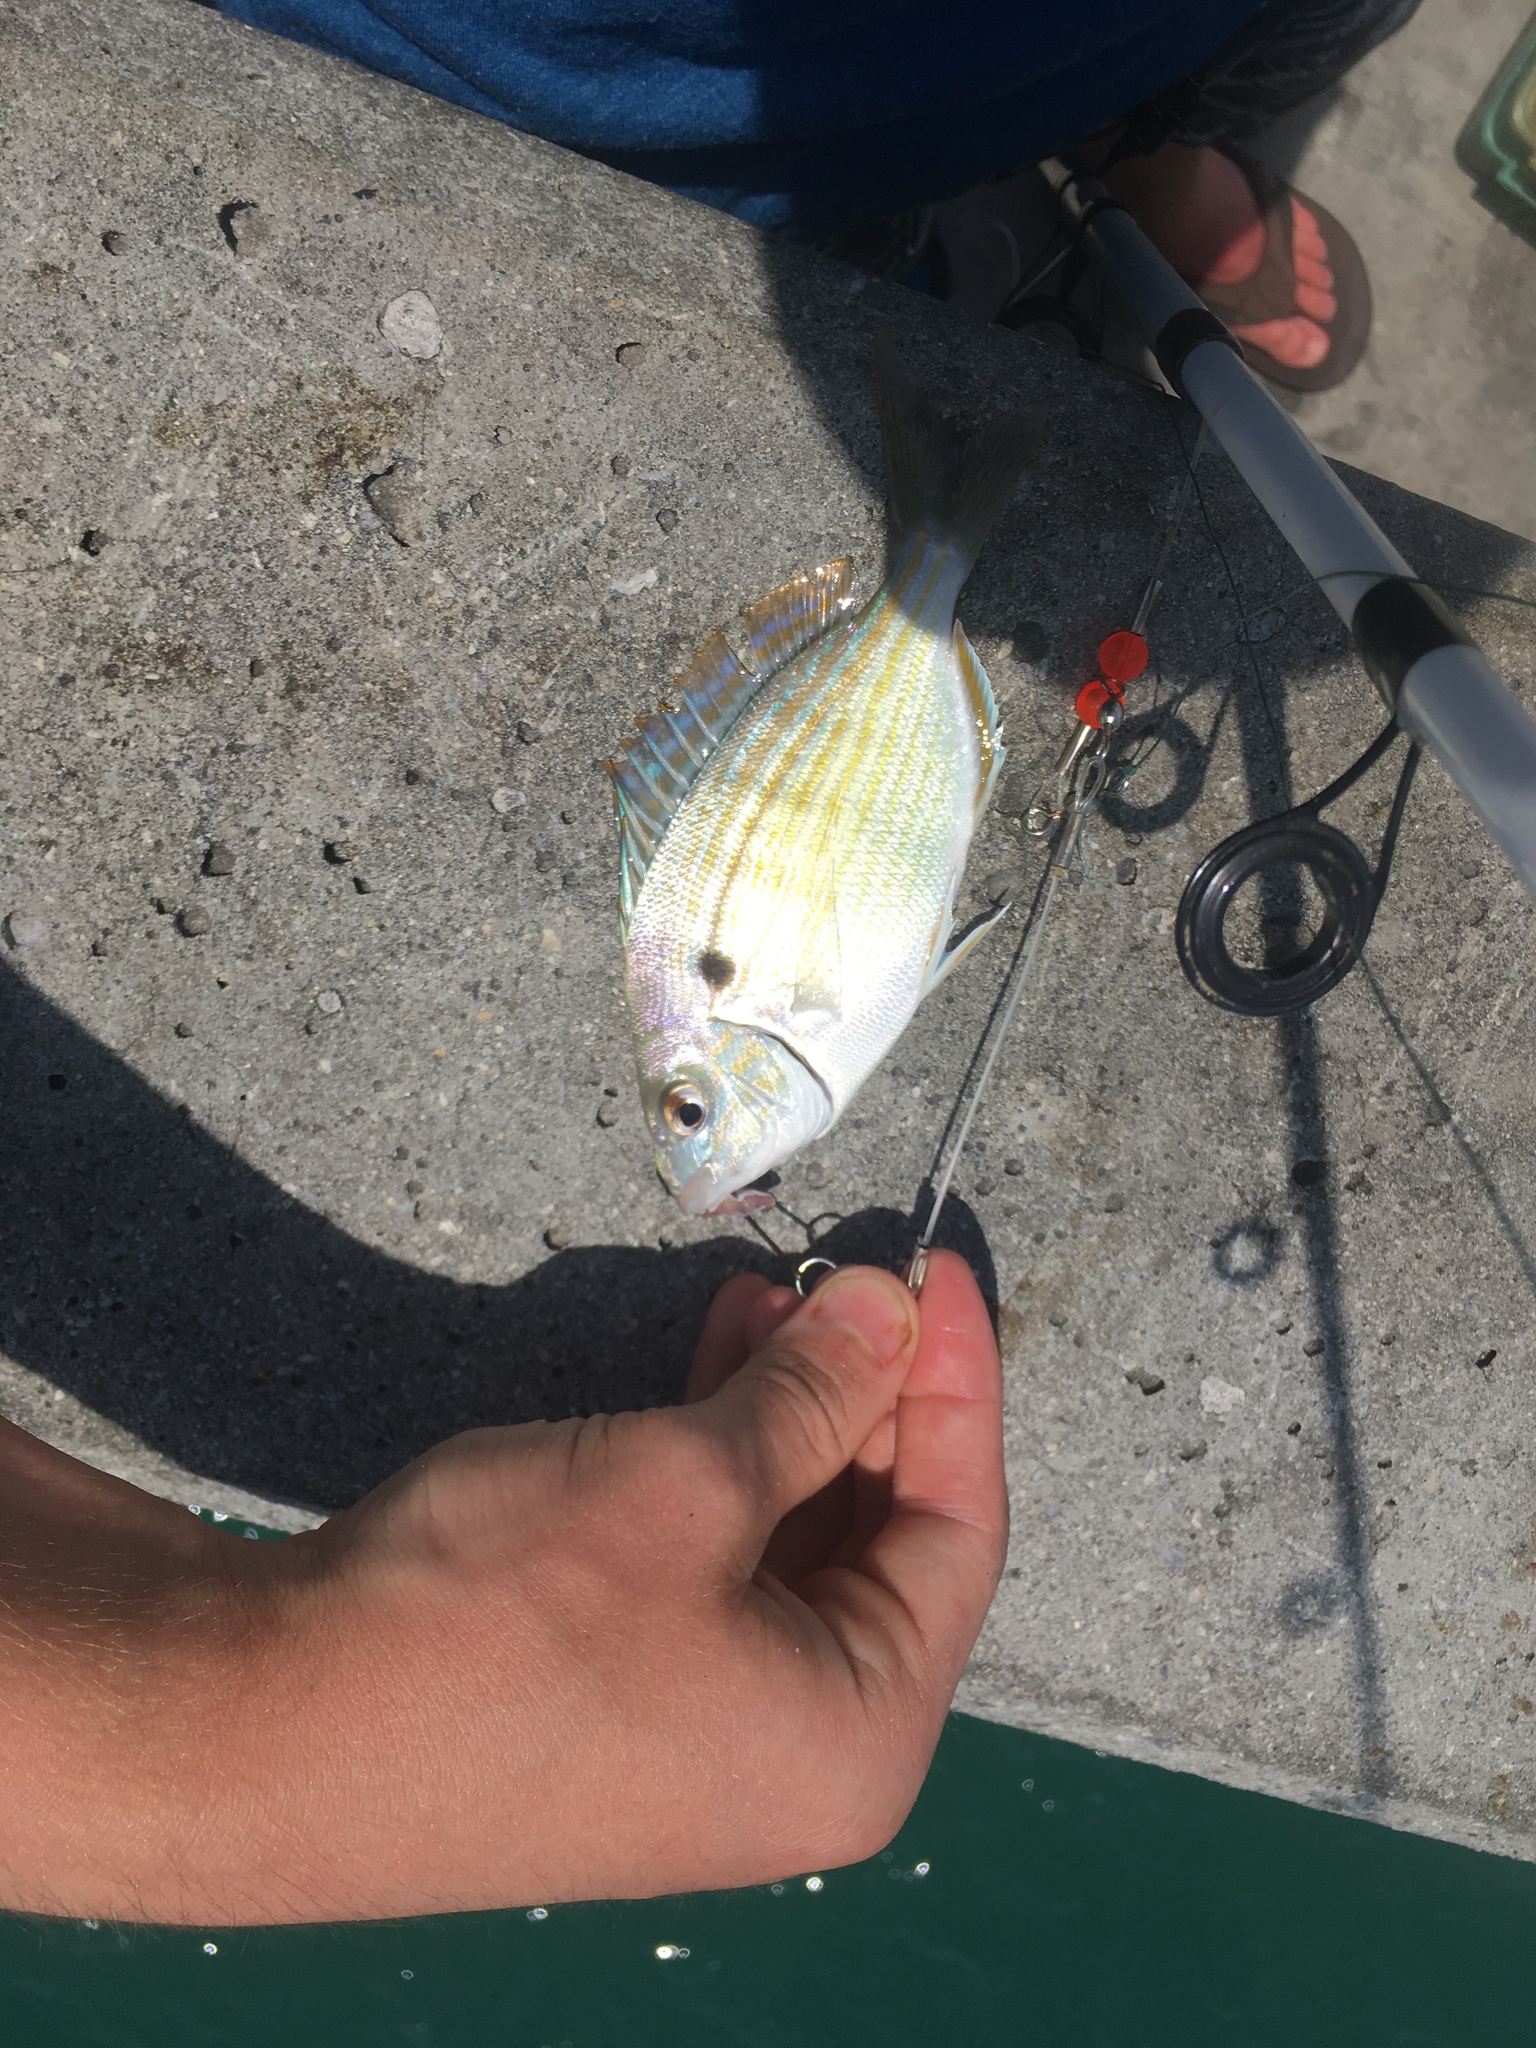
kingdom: Animalia
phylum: Chordata
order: Perciformes
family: Sparidae
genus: Lagodon
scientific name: Lagodon rhomboides
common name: Pinfish
